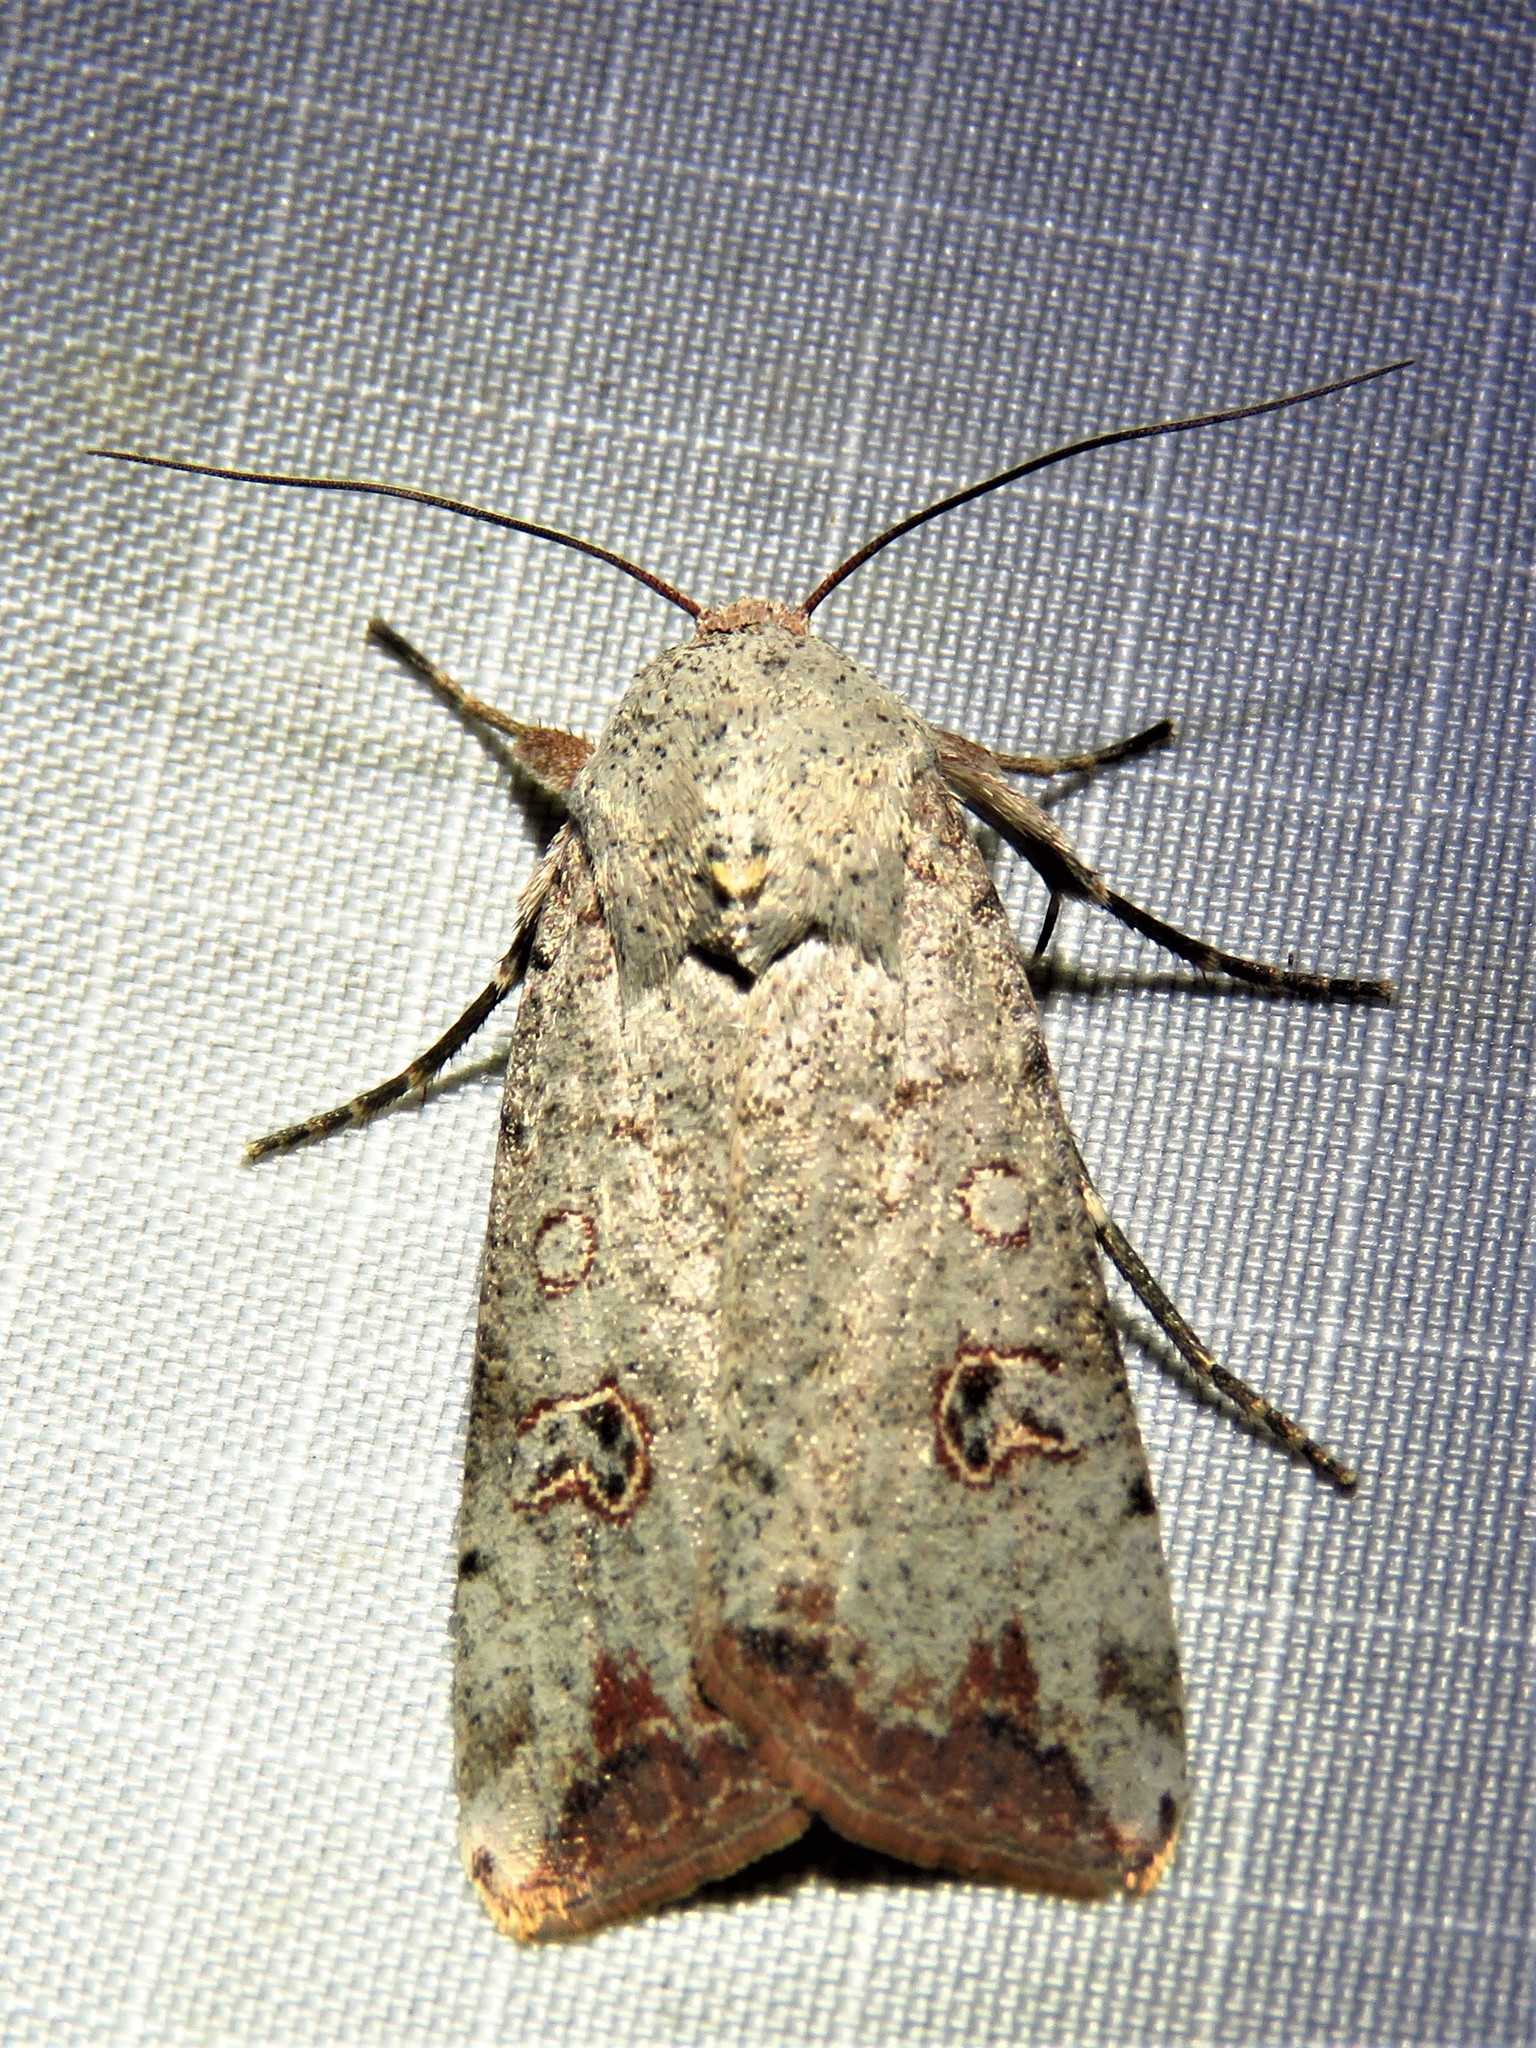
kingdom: Animalia
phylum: Arthropoda
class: Insecta
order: Lepidoptera
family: Noctuidae
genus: Anicla
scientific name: Anicla infecta
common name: Green cutworm
